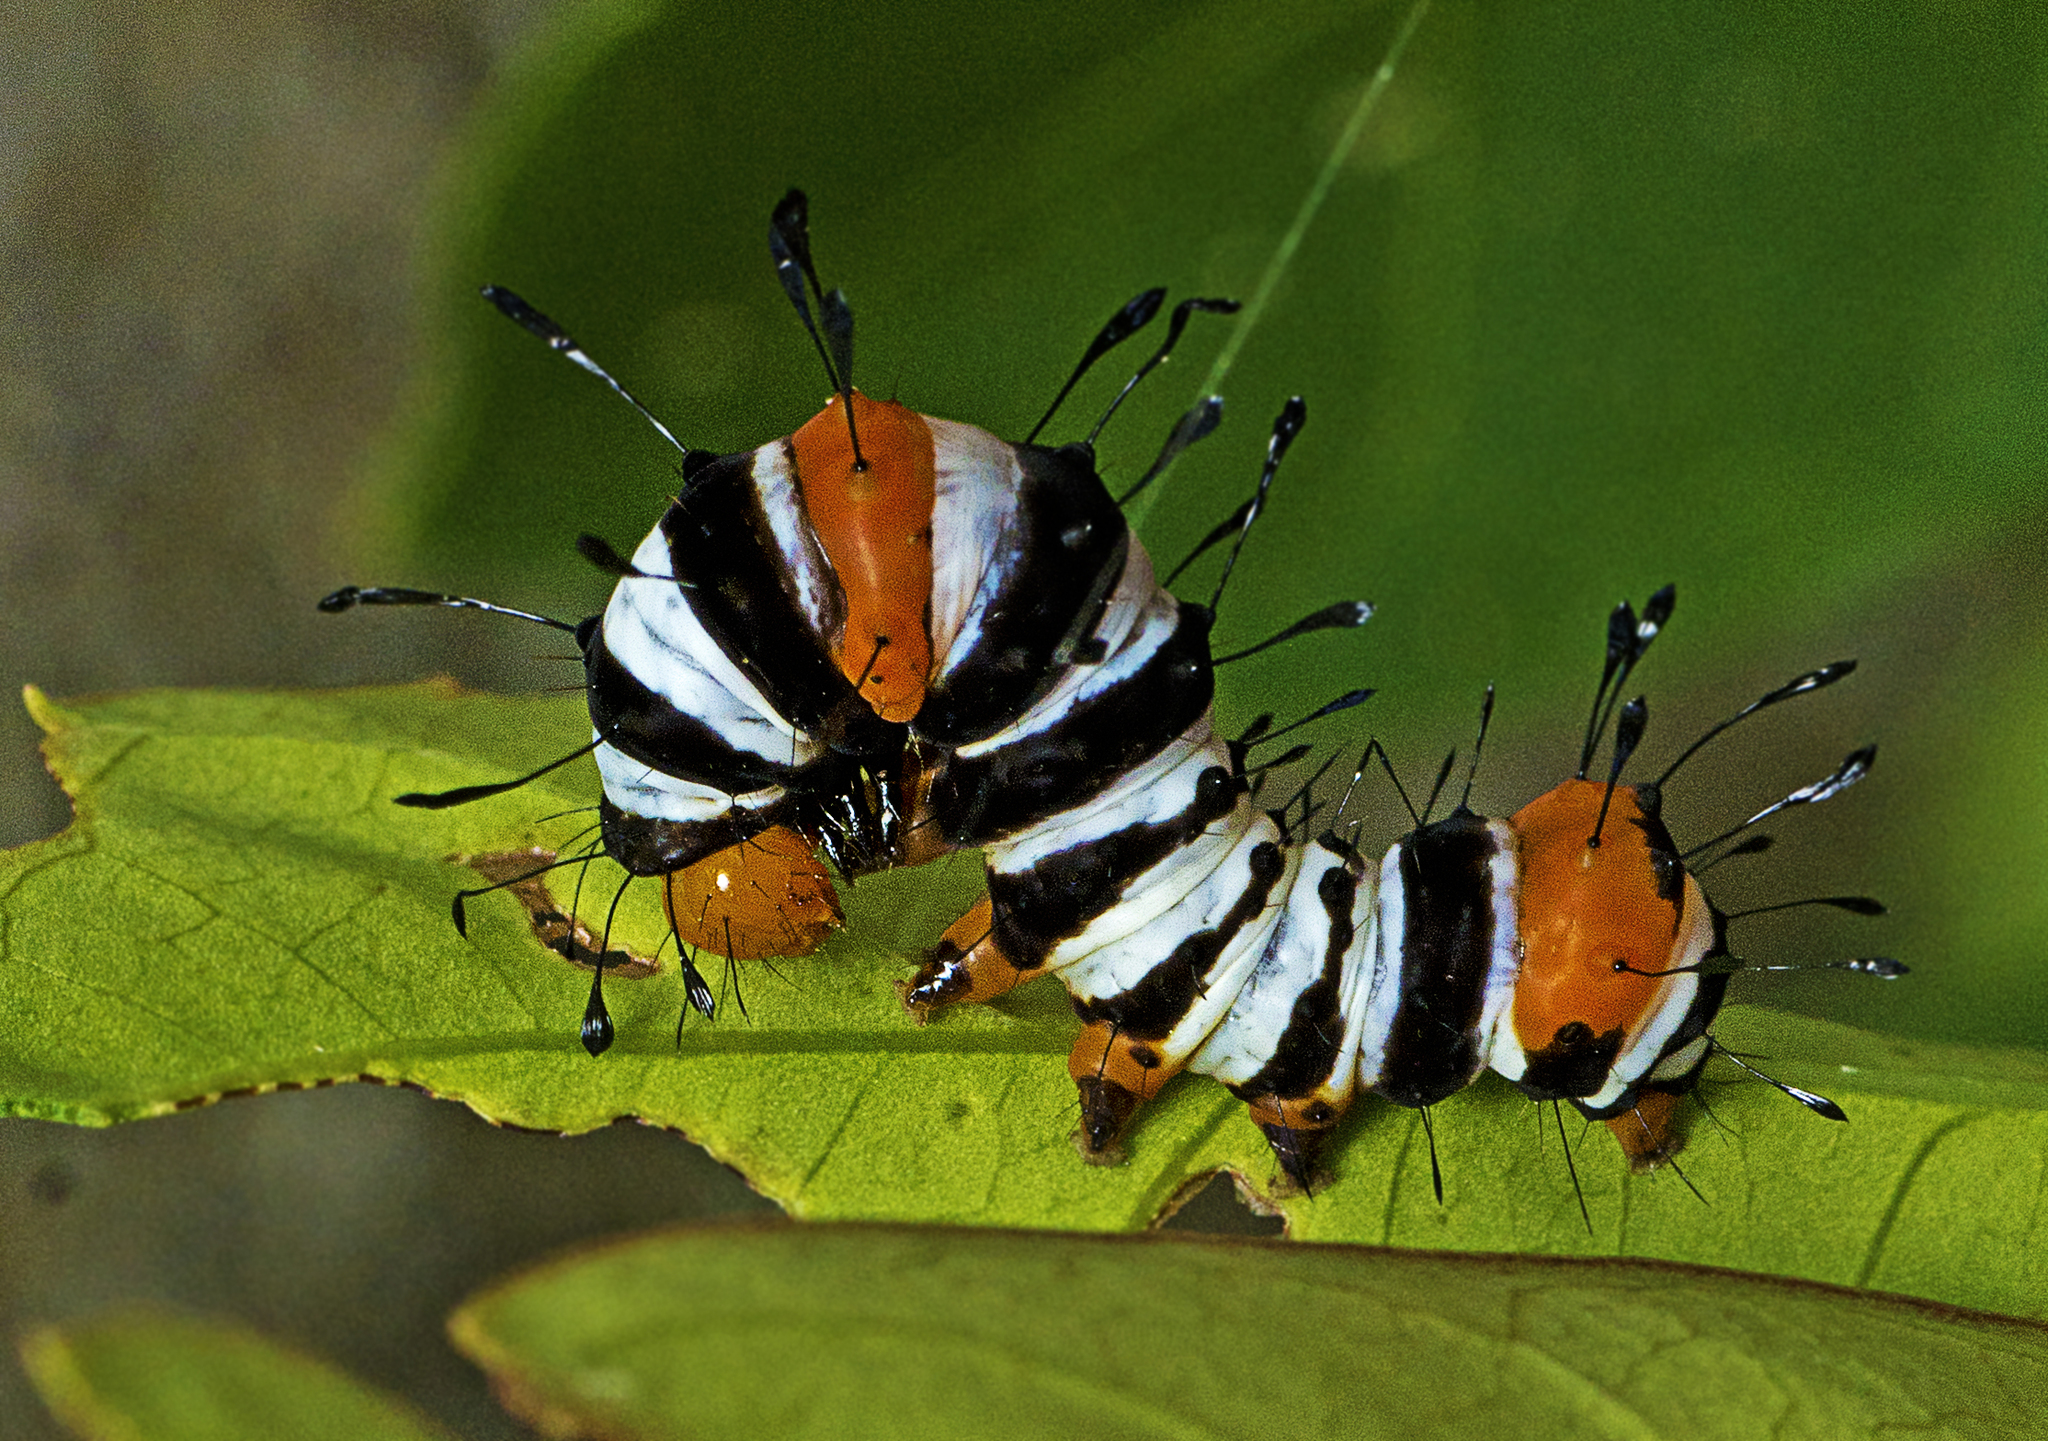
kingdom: Animalia
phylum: Arthropoda
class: Insecta
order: Lepidoptera
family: Noctuidae
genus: Agarista
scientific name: Agarista agricola
